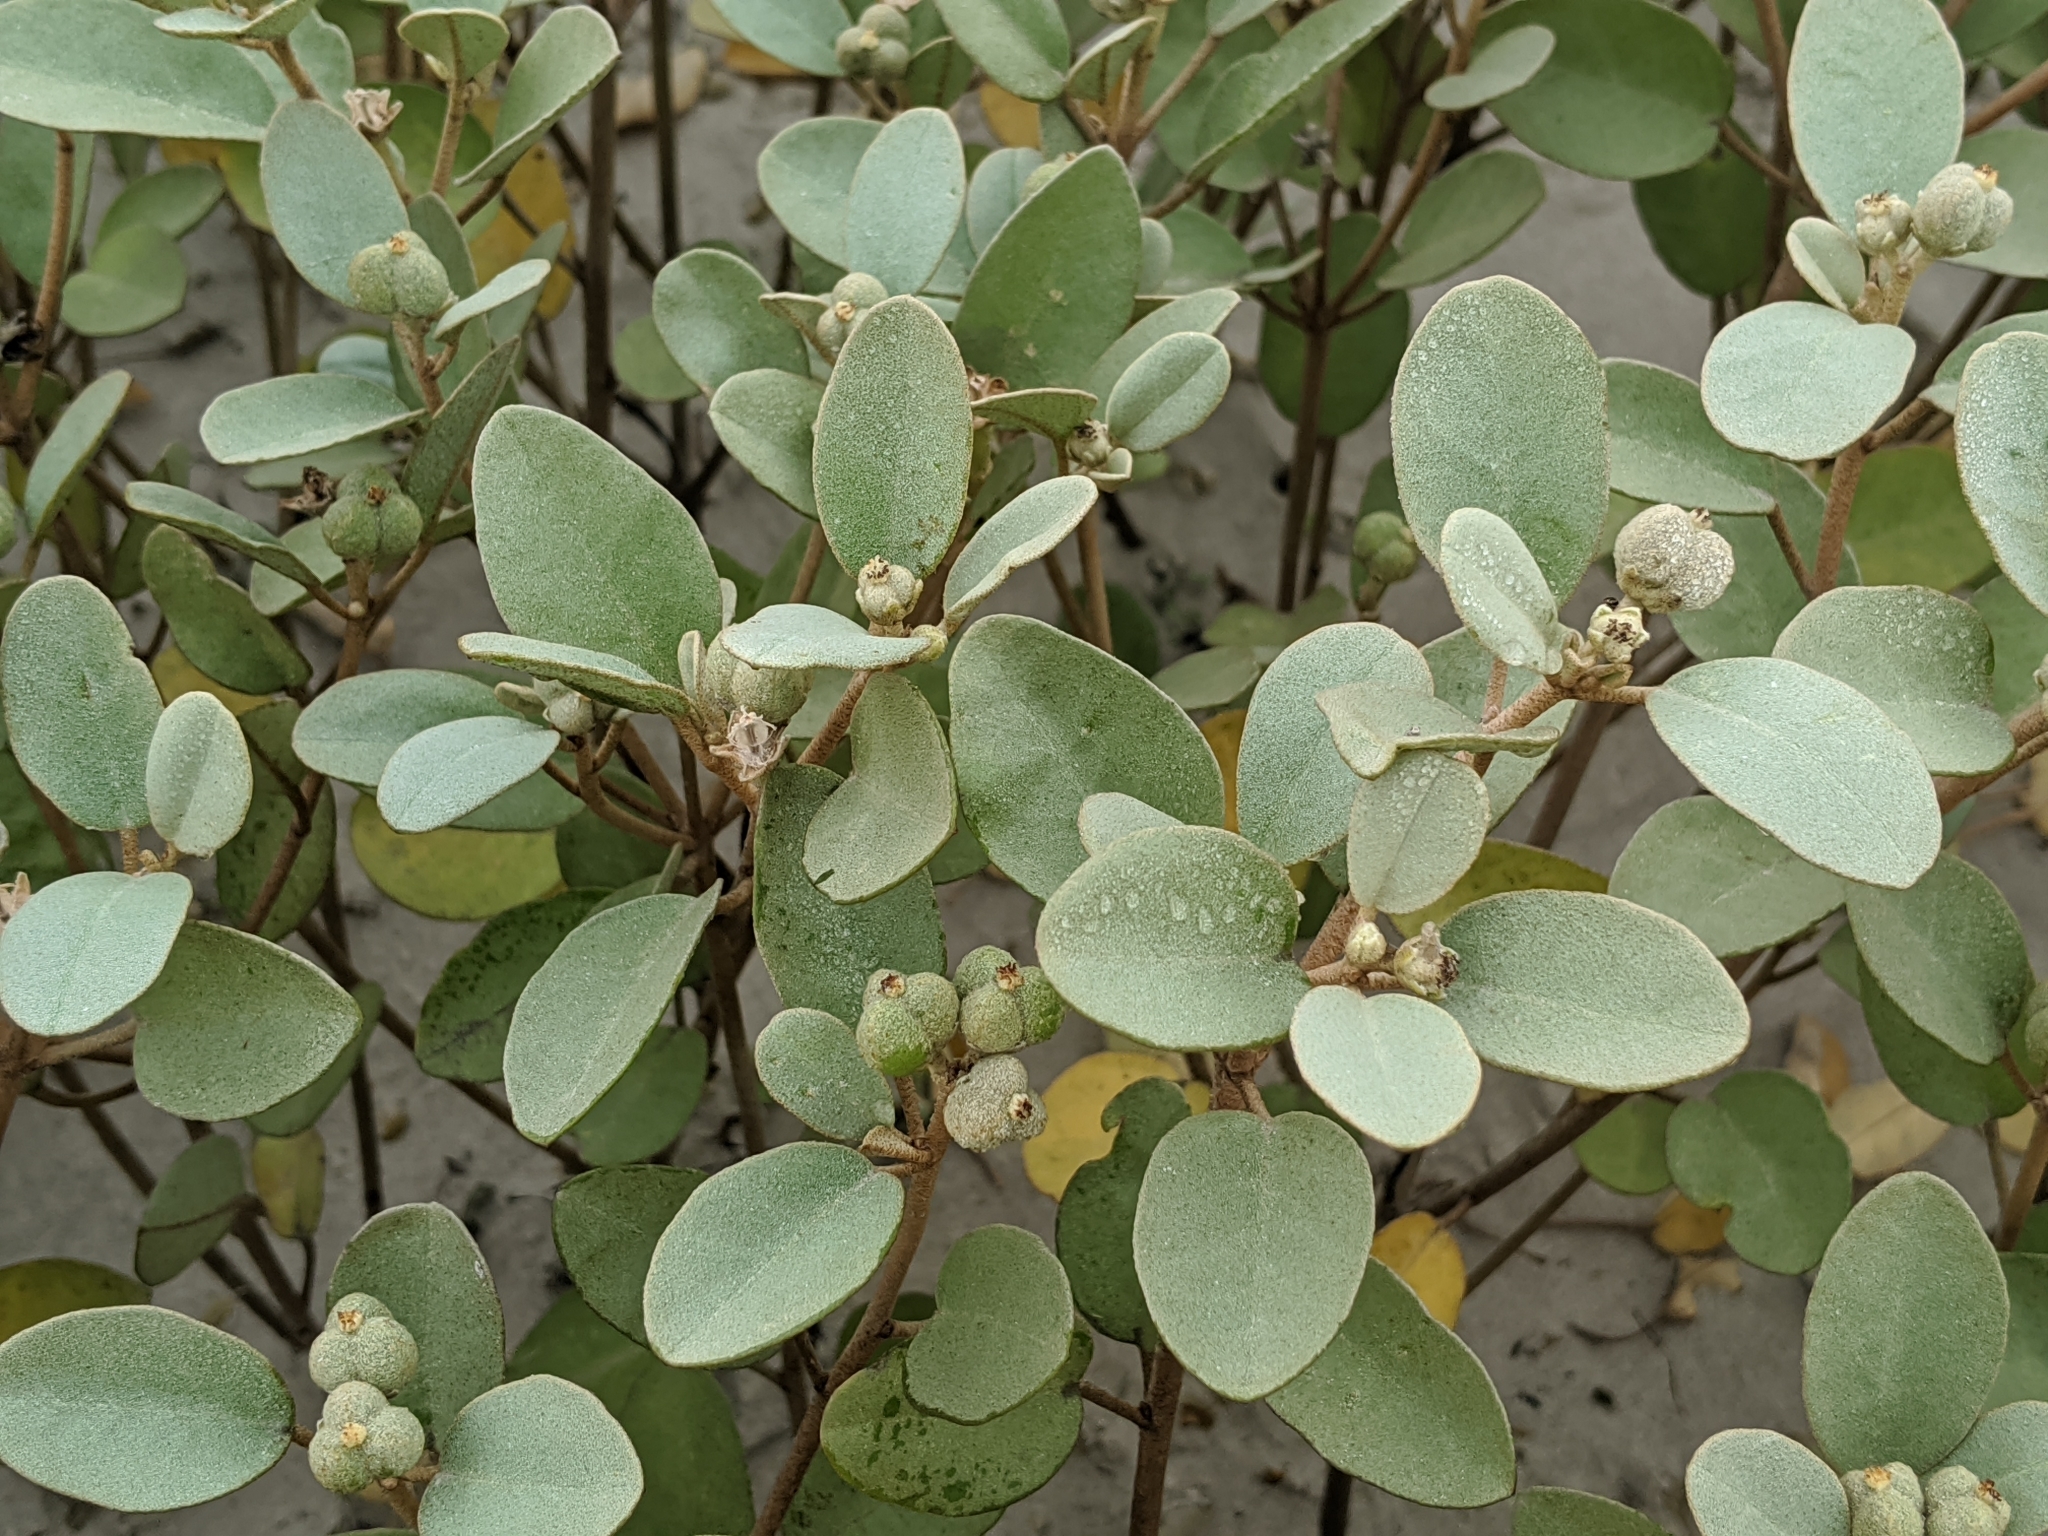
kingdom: Plantae
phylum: Tracheophyta
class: Magnoliopsida
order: Malpighiales
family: Euphorbiaceae
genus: Croton
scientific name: Croton punctatus
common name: Beach-tea
